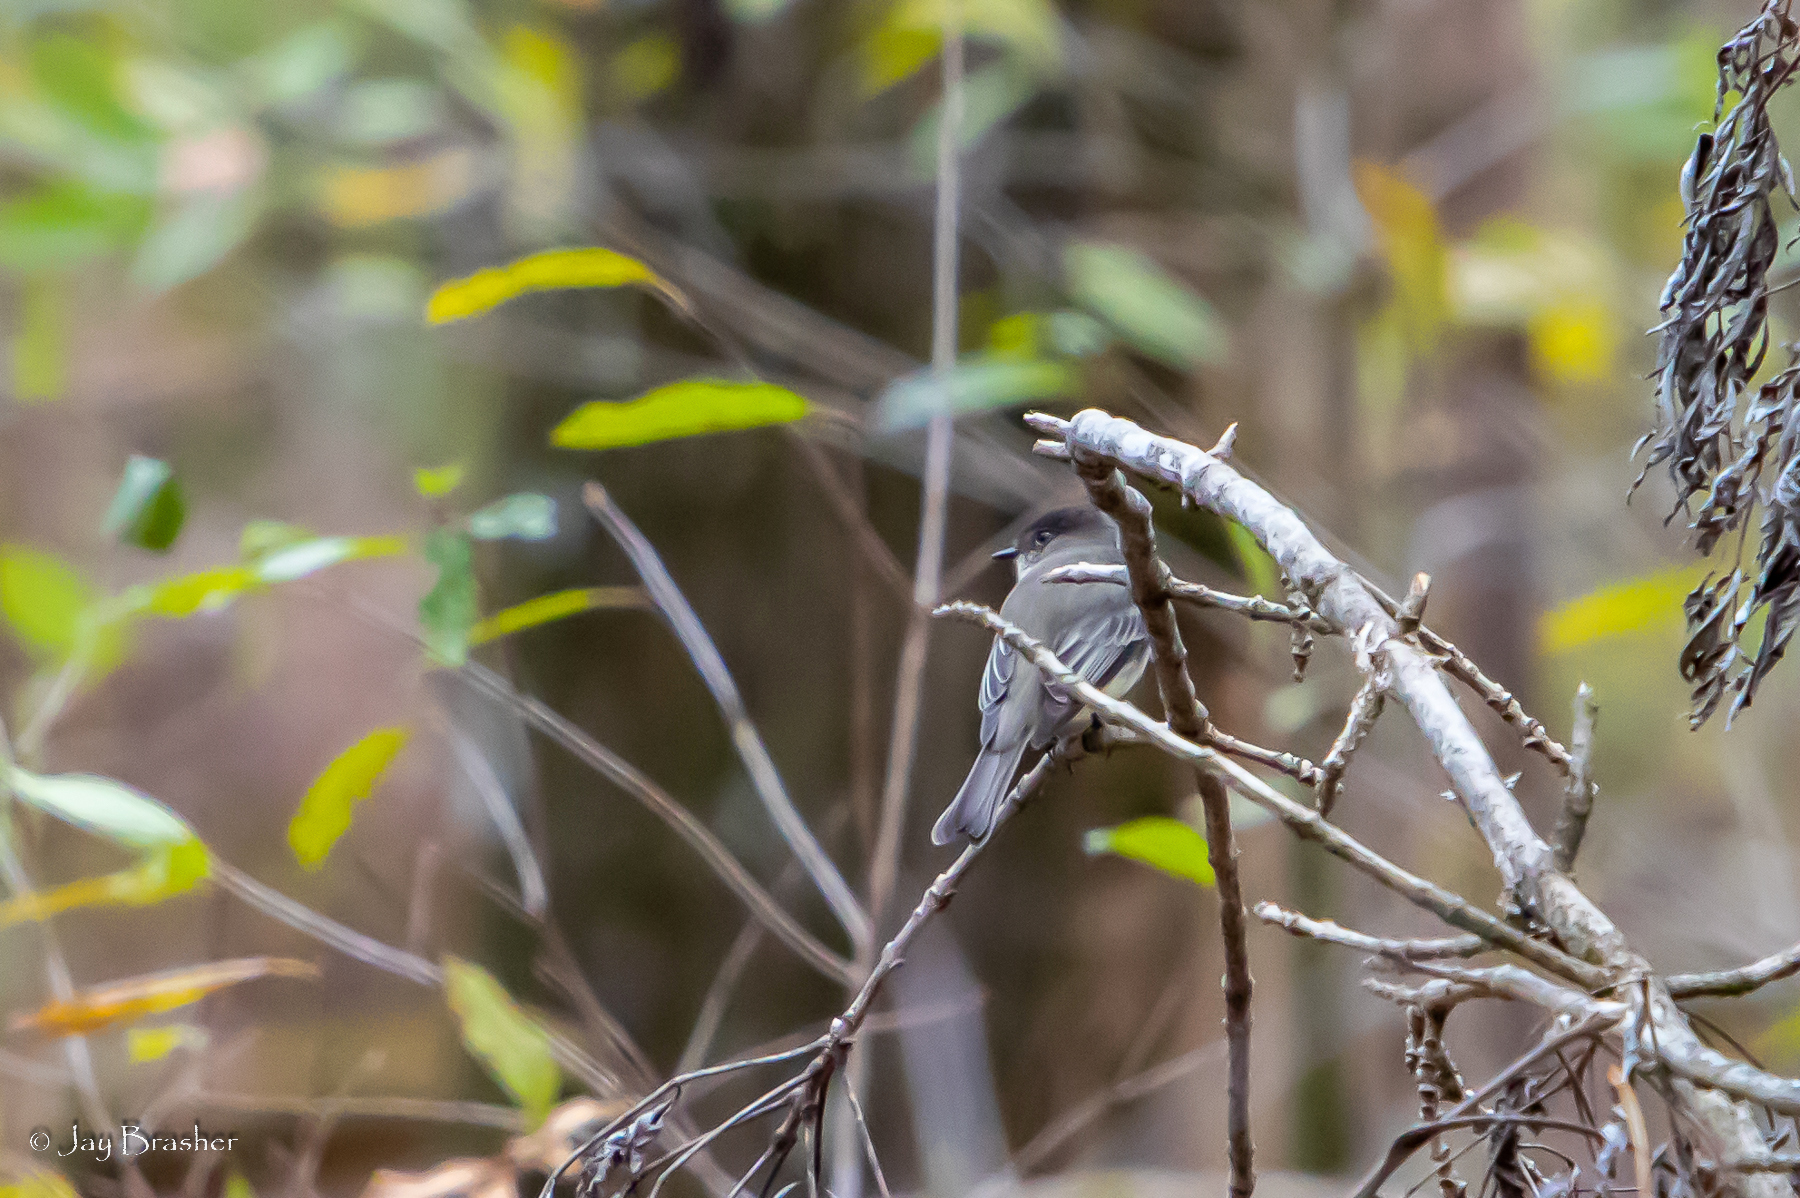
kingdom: Animalia
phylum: Chordata
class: Aves
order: Passeriformes
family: Tyrannidae
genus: Sayornis
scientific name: Sayornis phoebe
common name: Eastern phoebe
